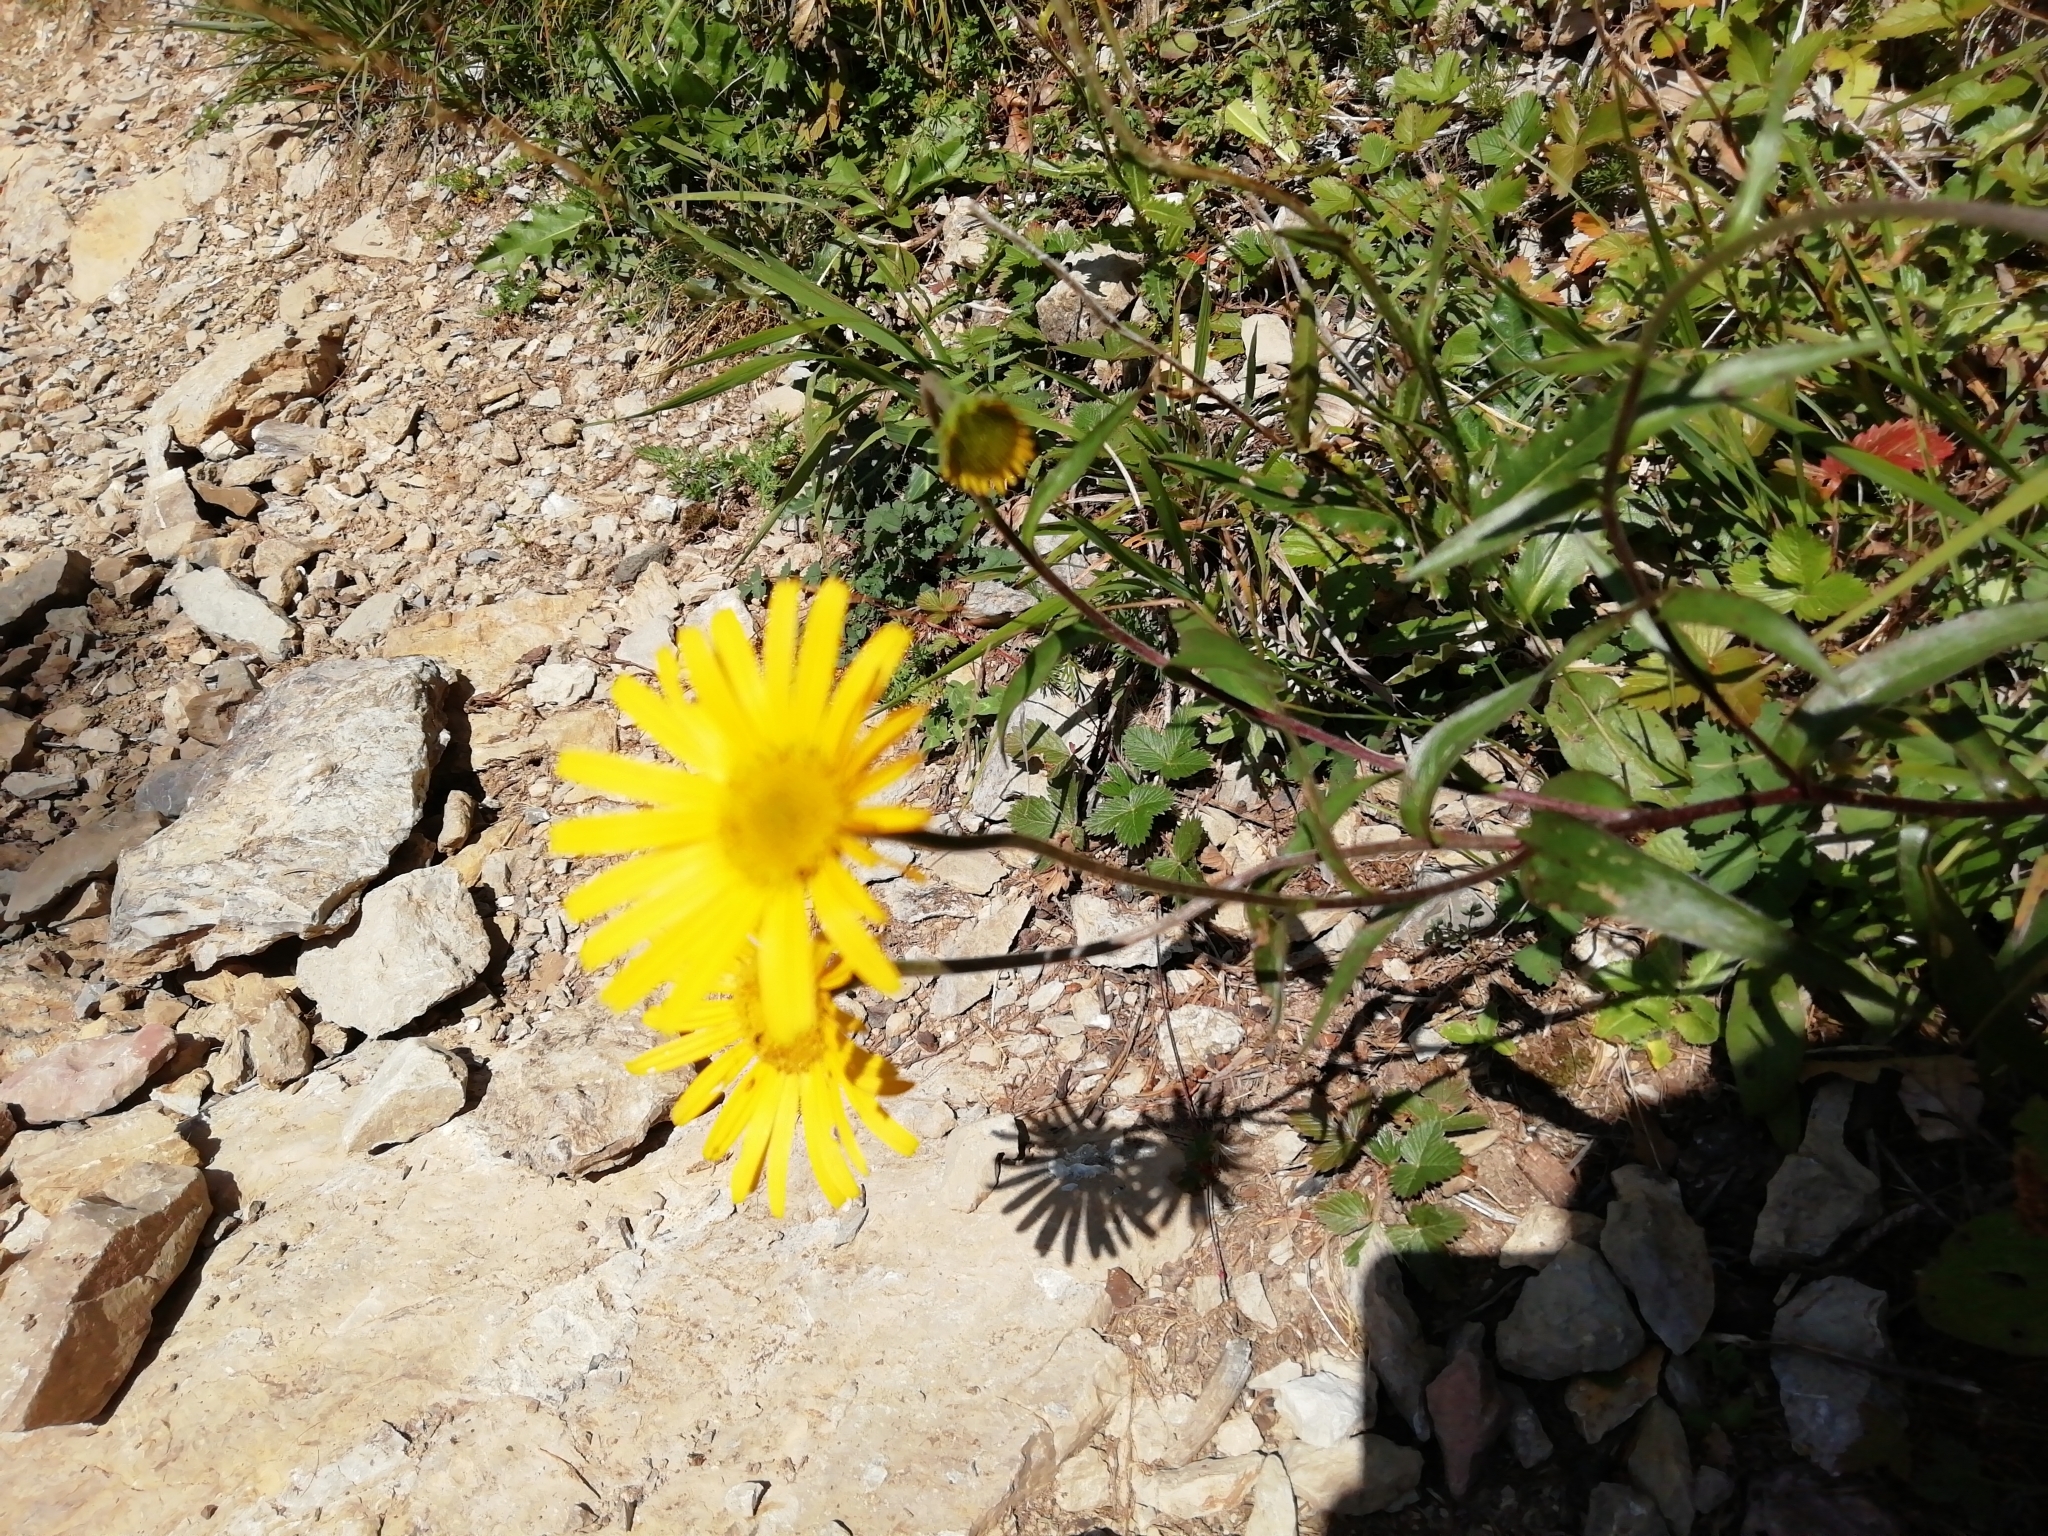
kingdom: Plantae
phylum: Tracheophyta
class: Magnoliopsida
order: Asterales
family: Asteraceae
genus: Buphthalmum
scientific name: Buphthalmum salicifolium
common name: Willow-leaved yellow-oxeye
